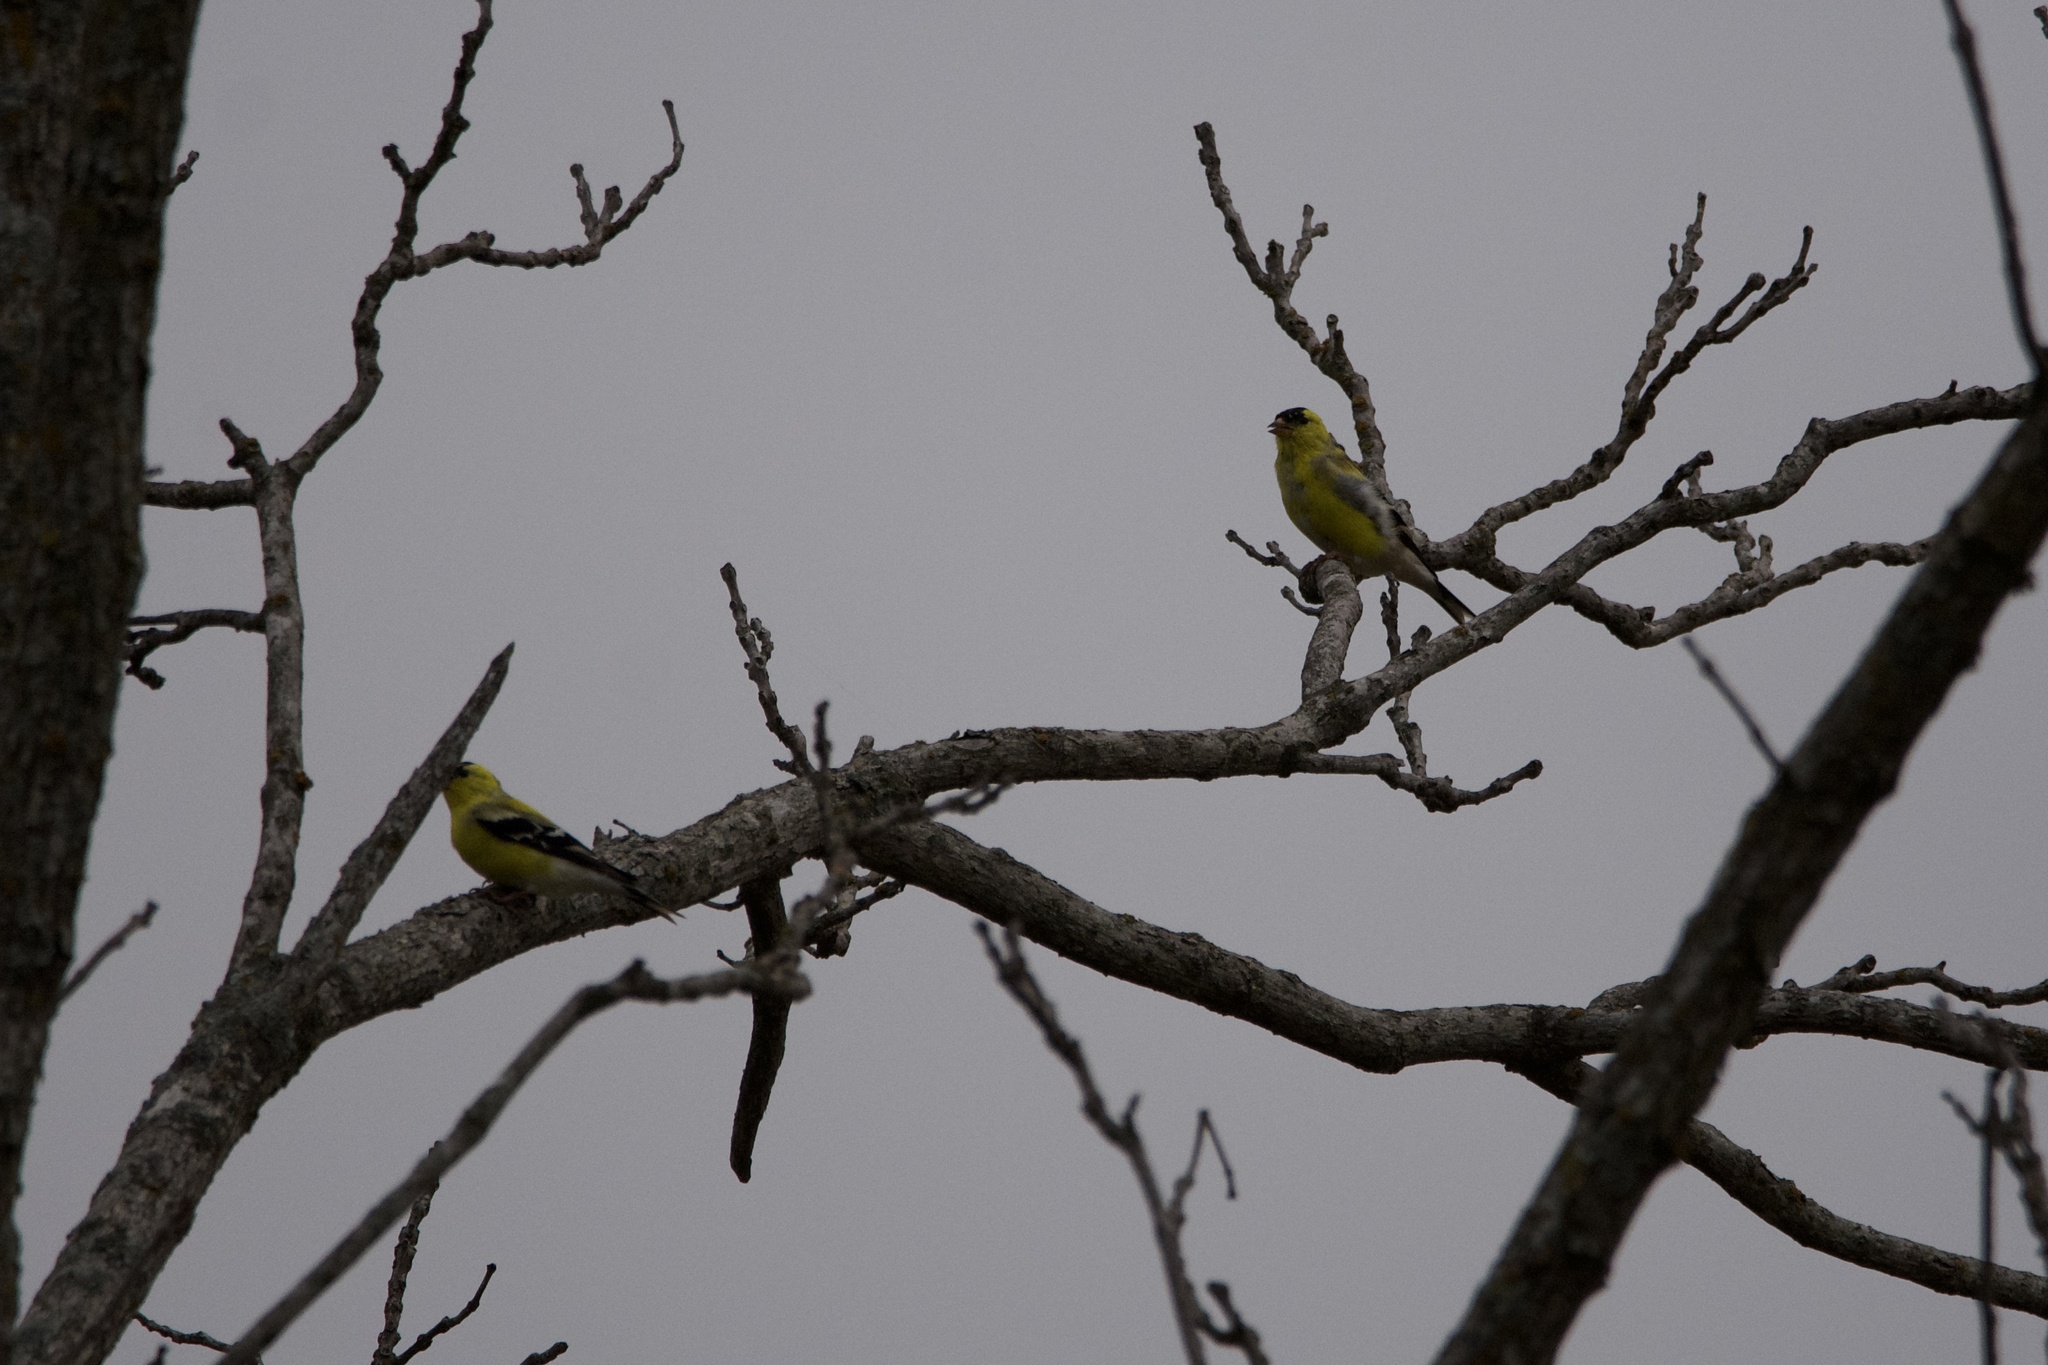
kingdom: Animalia
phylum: Chordata
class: Aves
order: Passeriformes
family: Fringillidae
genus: Spinus
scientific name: Spinus tristis
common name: American goldfinch
